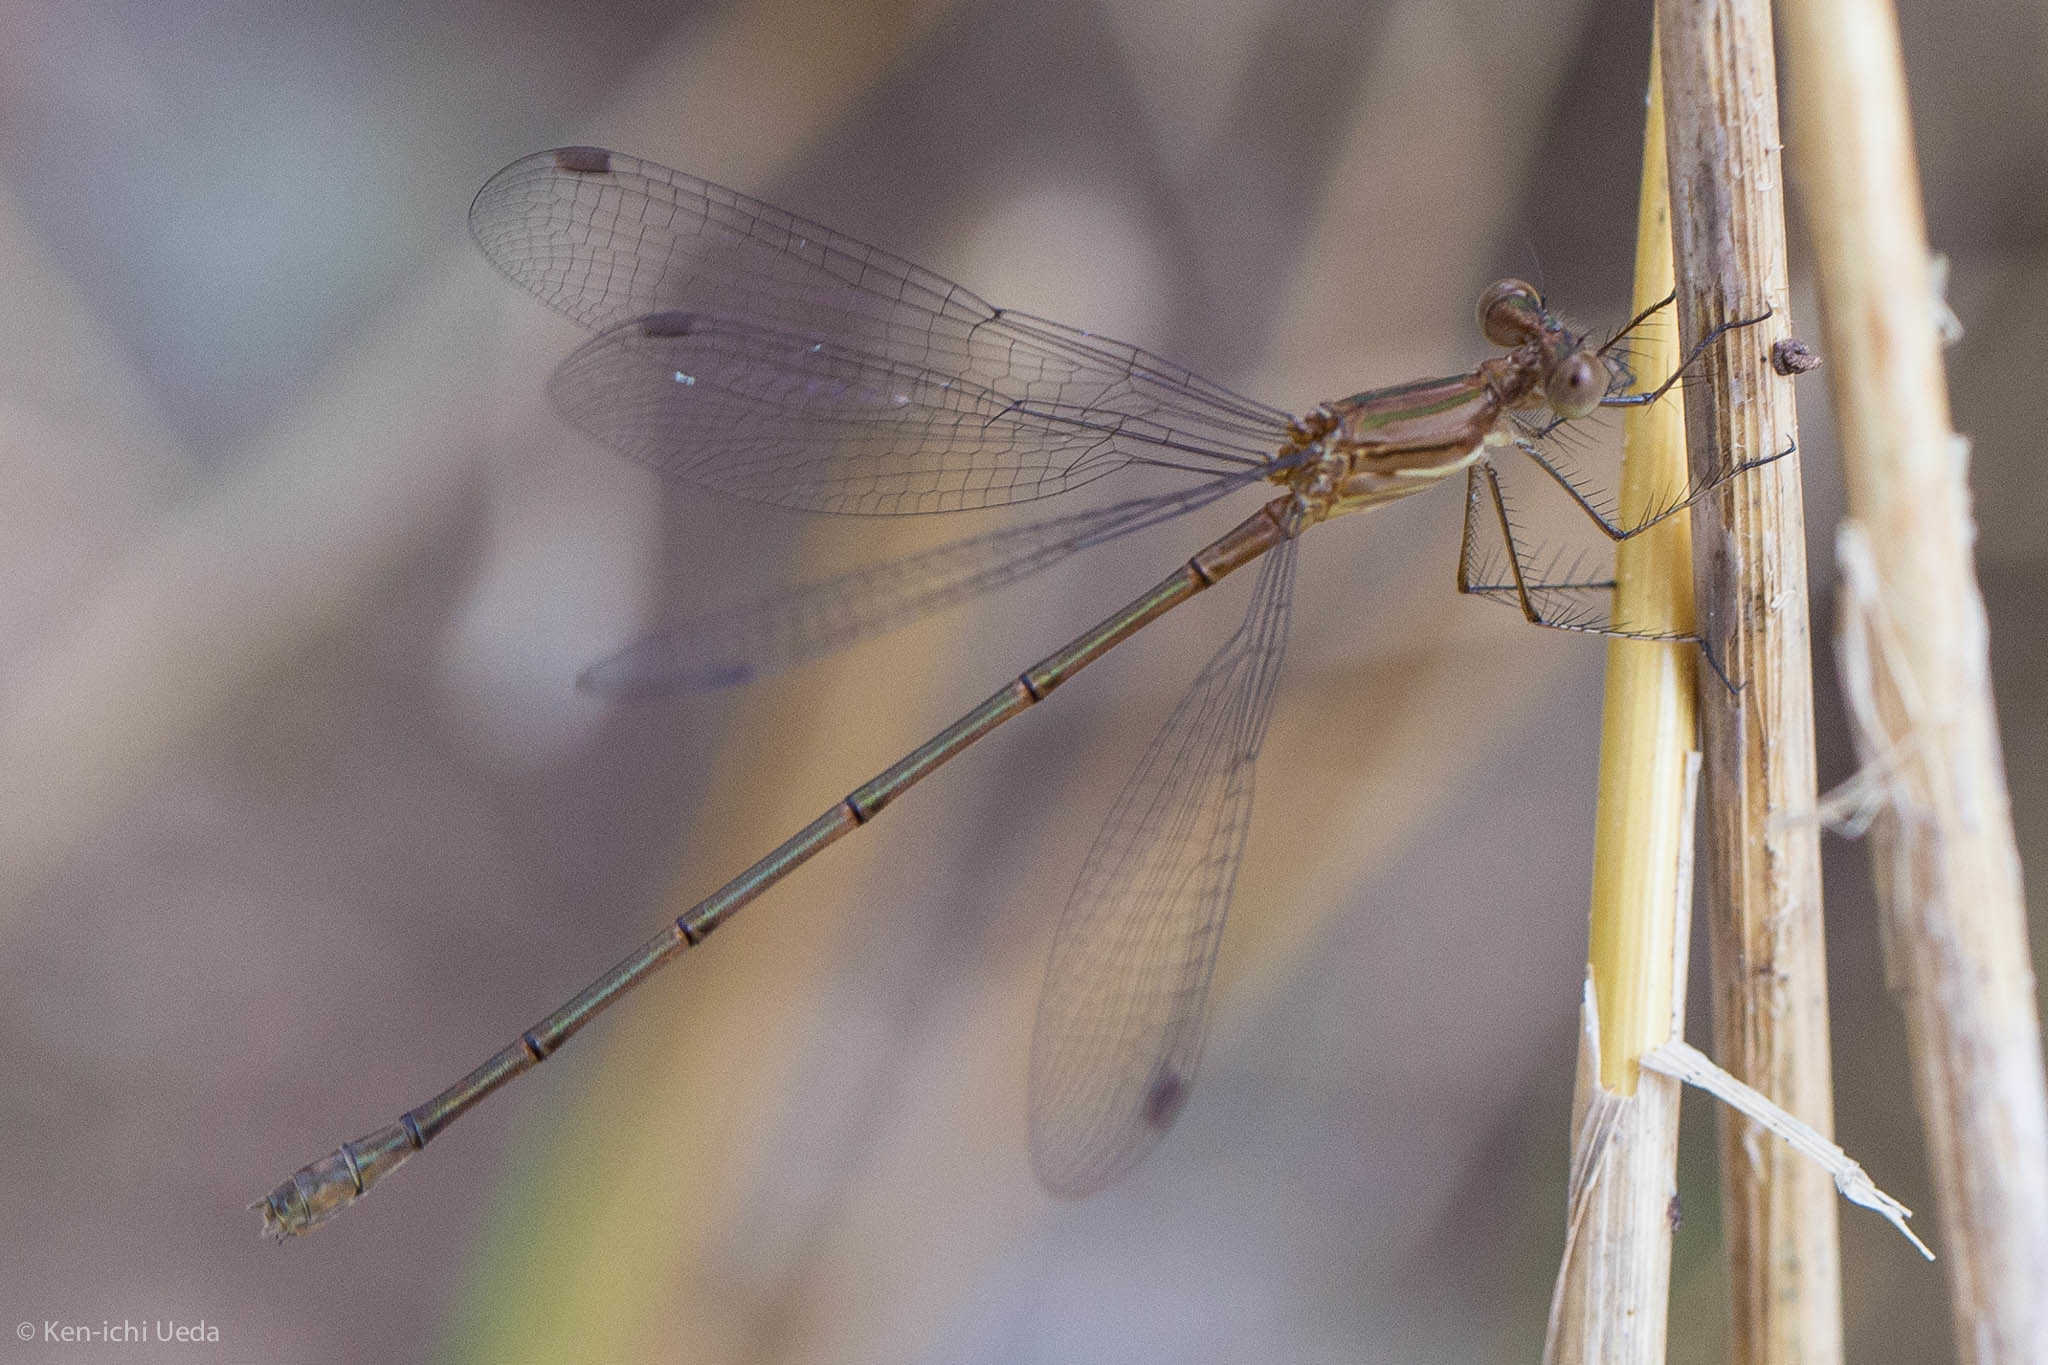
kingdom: Animalia
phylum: Arthropoda
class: Insecta
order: Odonata
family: Lestidae
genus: Lestes
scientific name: Lestes forficula
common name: Rainpool spreadwing
